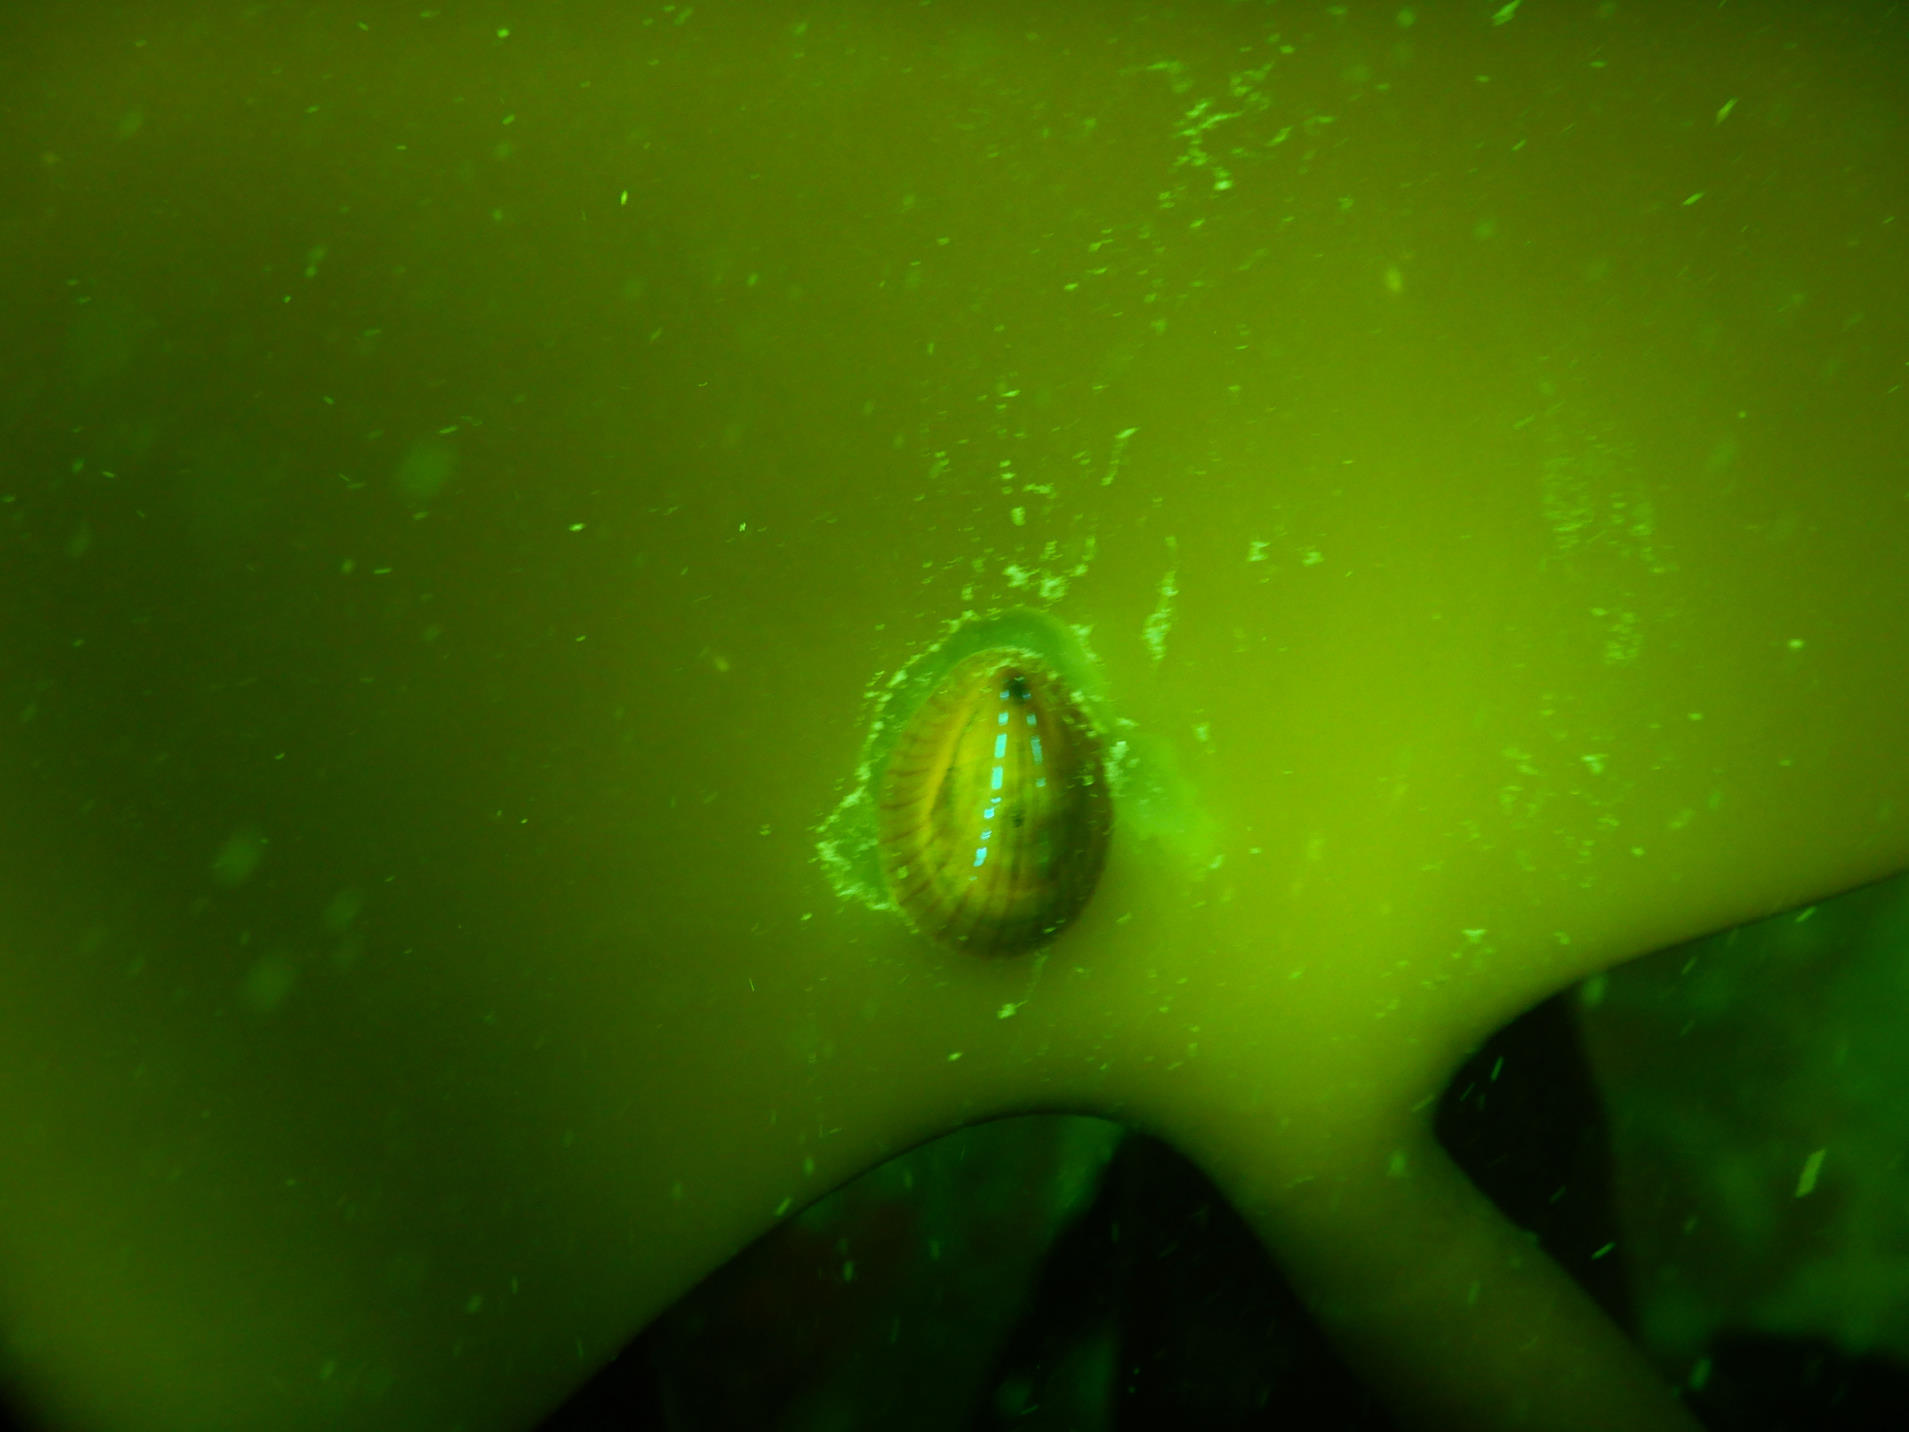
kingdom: Animalia
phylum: Mollusca
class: Gastropoda
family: Patellidae
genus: Patella
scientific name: Patella pellucida
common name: Blue-rayed limpet
